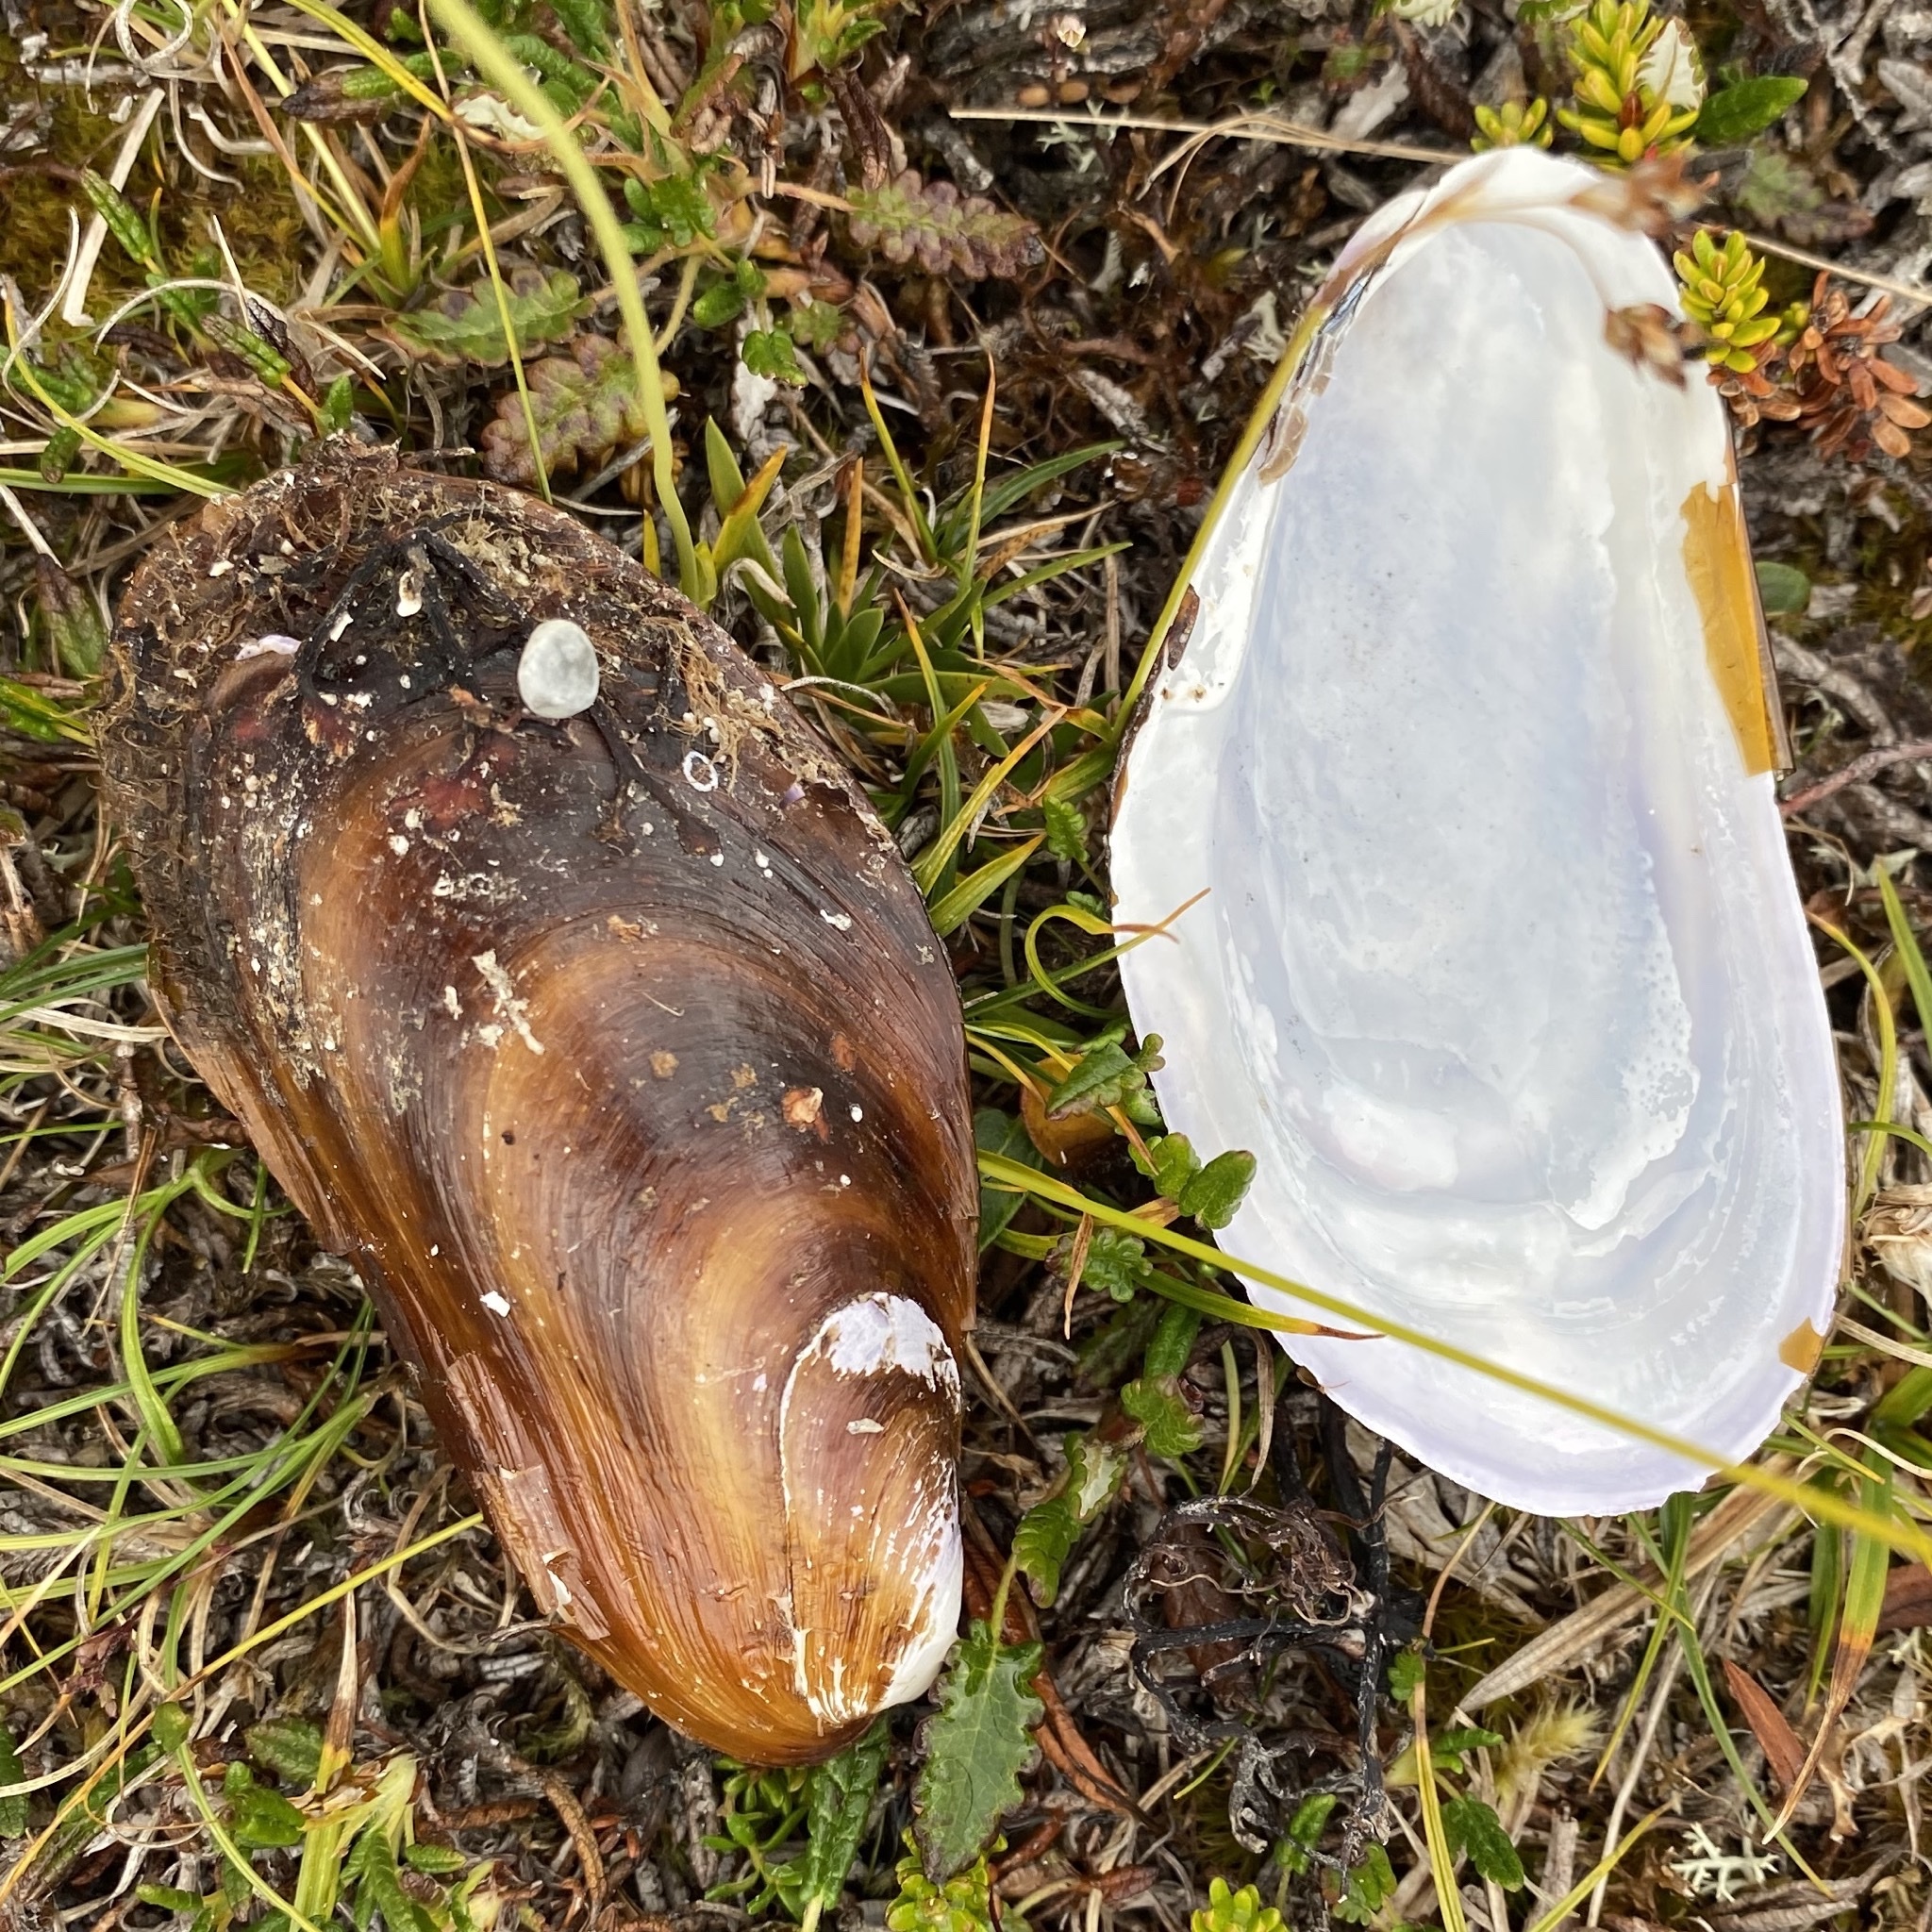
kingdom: Animalia
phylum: Mollusca
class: Bivalvia
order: Mytilida
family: Mytilidae
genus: Modiolus
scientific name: Modiolus modiolus
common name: Horse-mussel
